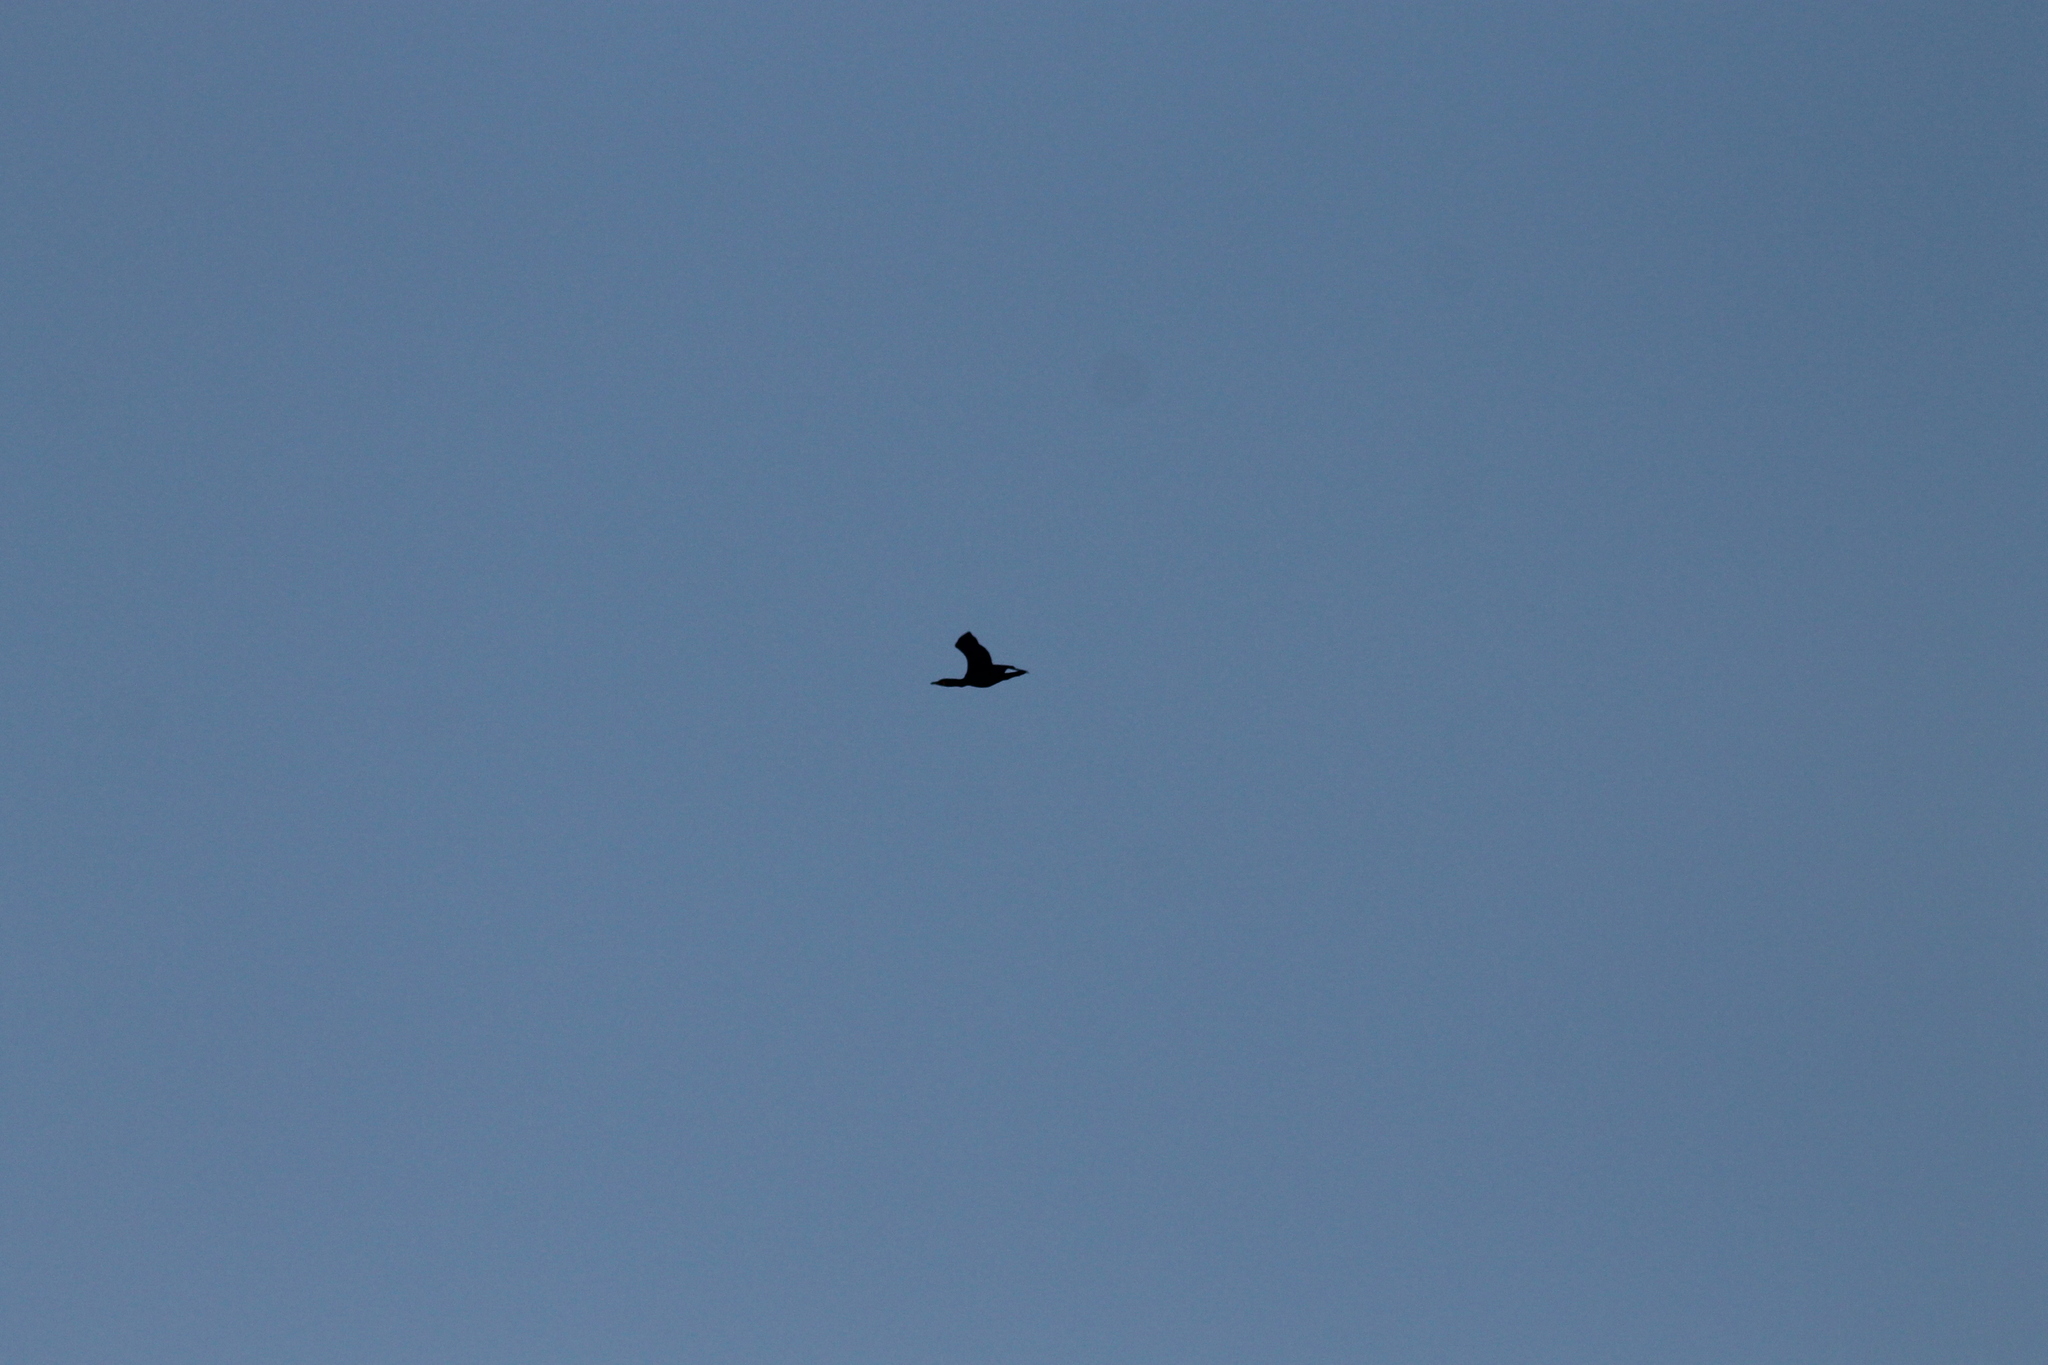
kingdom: Animalia
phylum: Chordata
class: Aves
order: Suliformes
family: Phalacrocoracidae
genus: Phalacrocorax
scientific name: Phalacrocorax carbo
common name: Great cormorant
